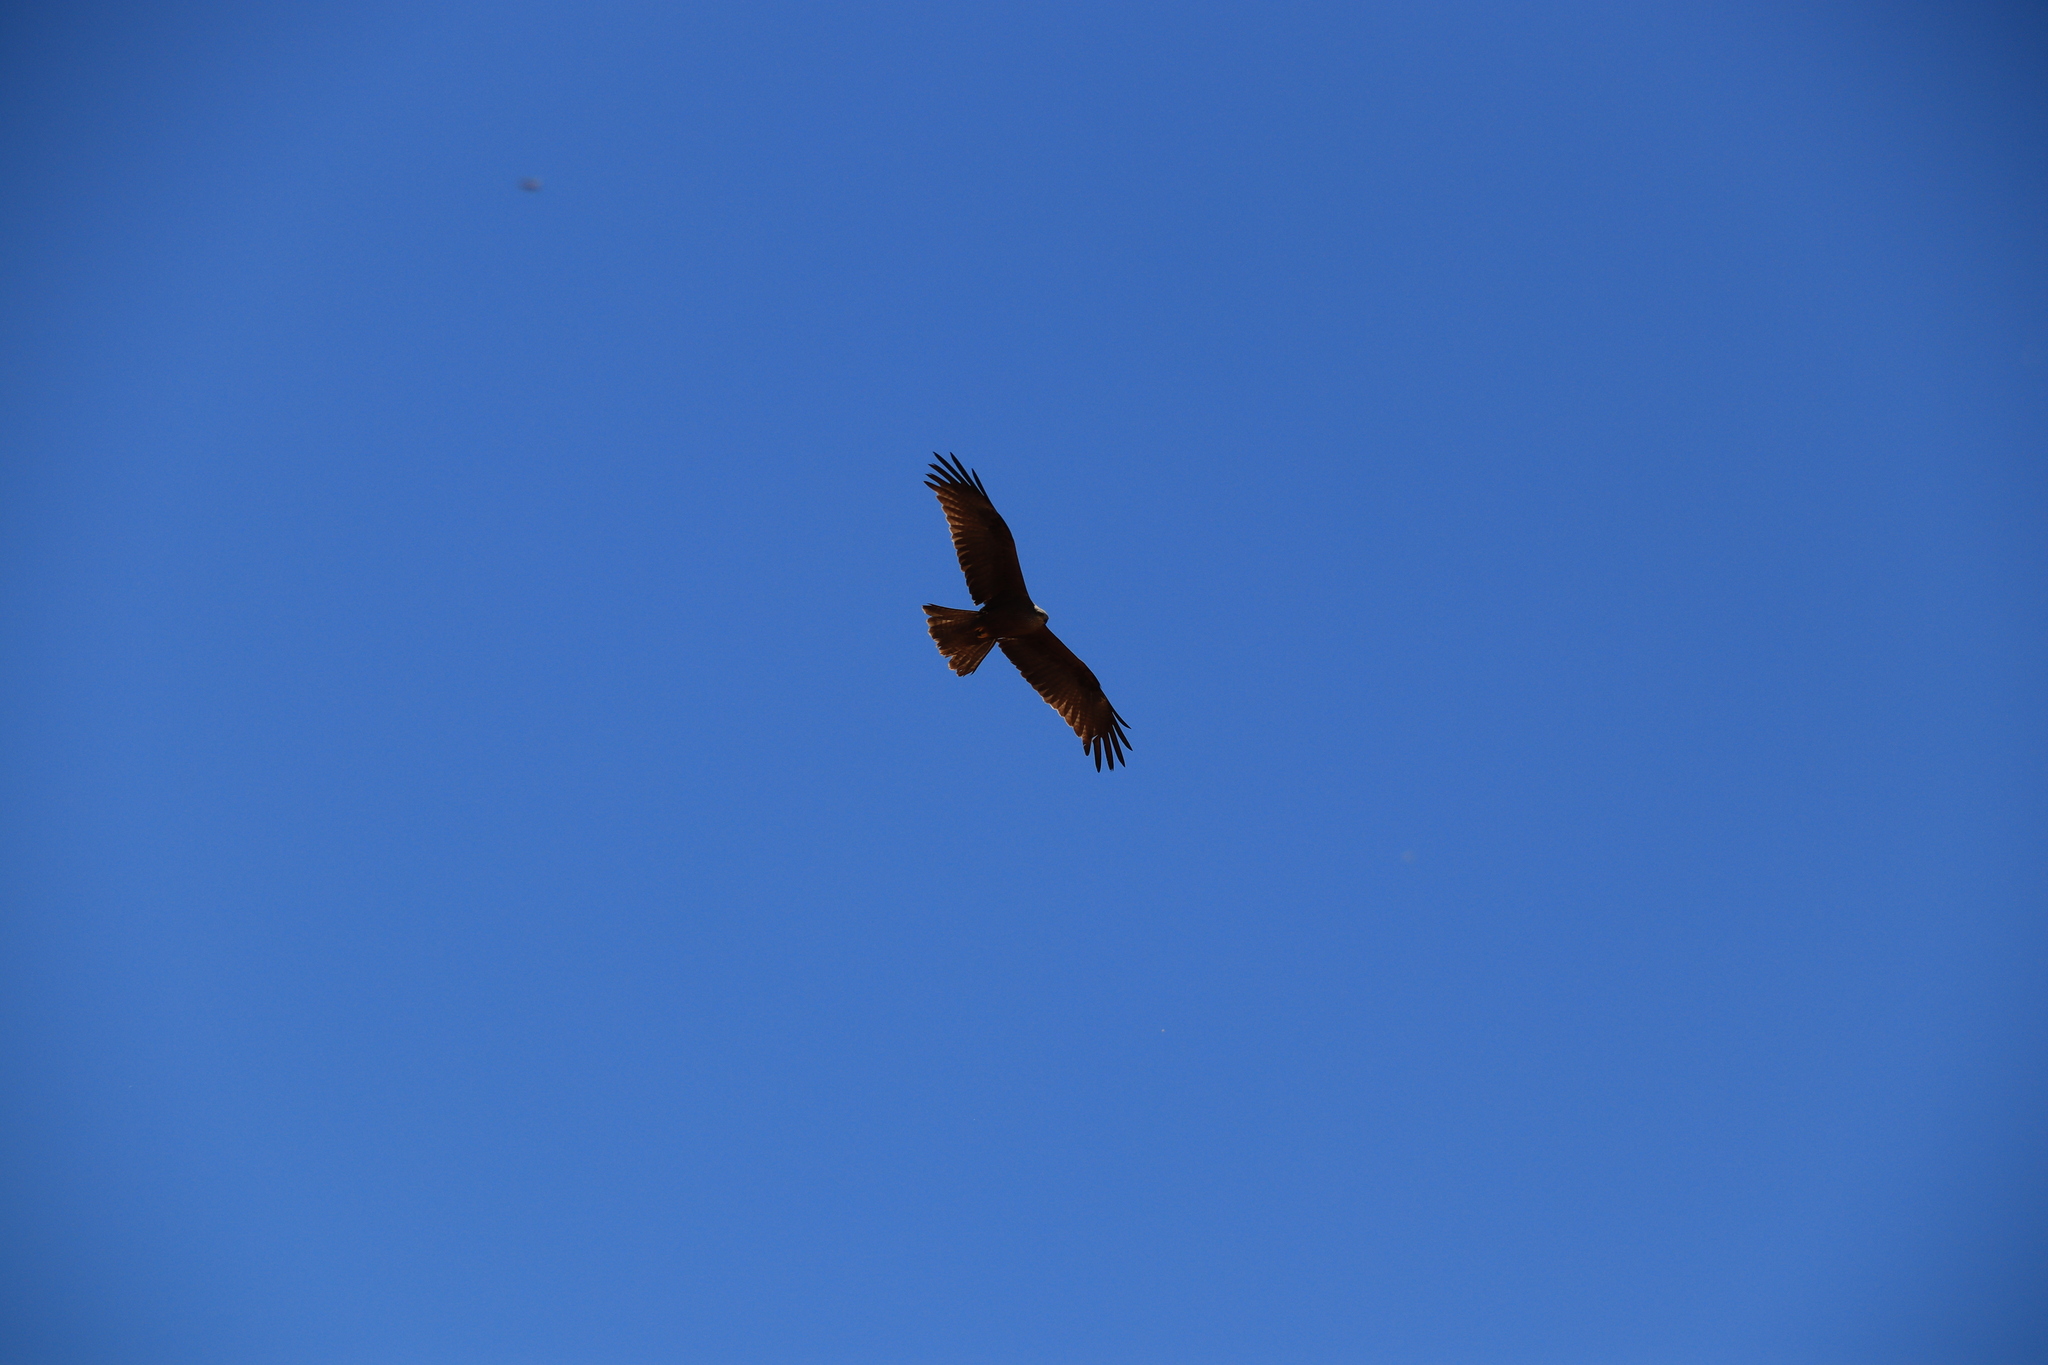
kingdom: Animalia
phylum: Chordata
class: Aves
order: Accipitriformes
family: Accipitridae
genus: Milvus
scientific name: Milvus migrans
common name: Black kite
